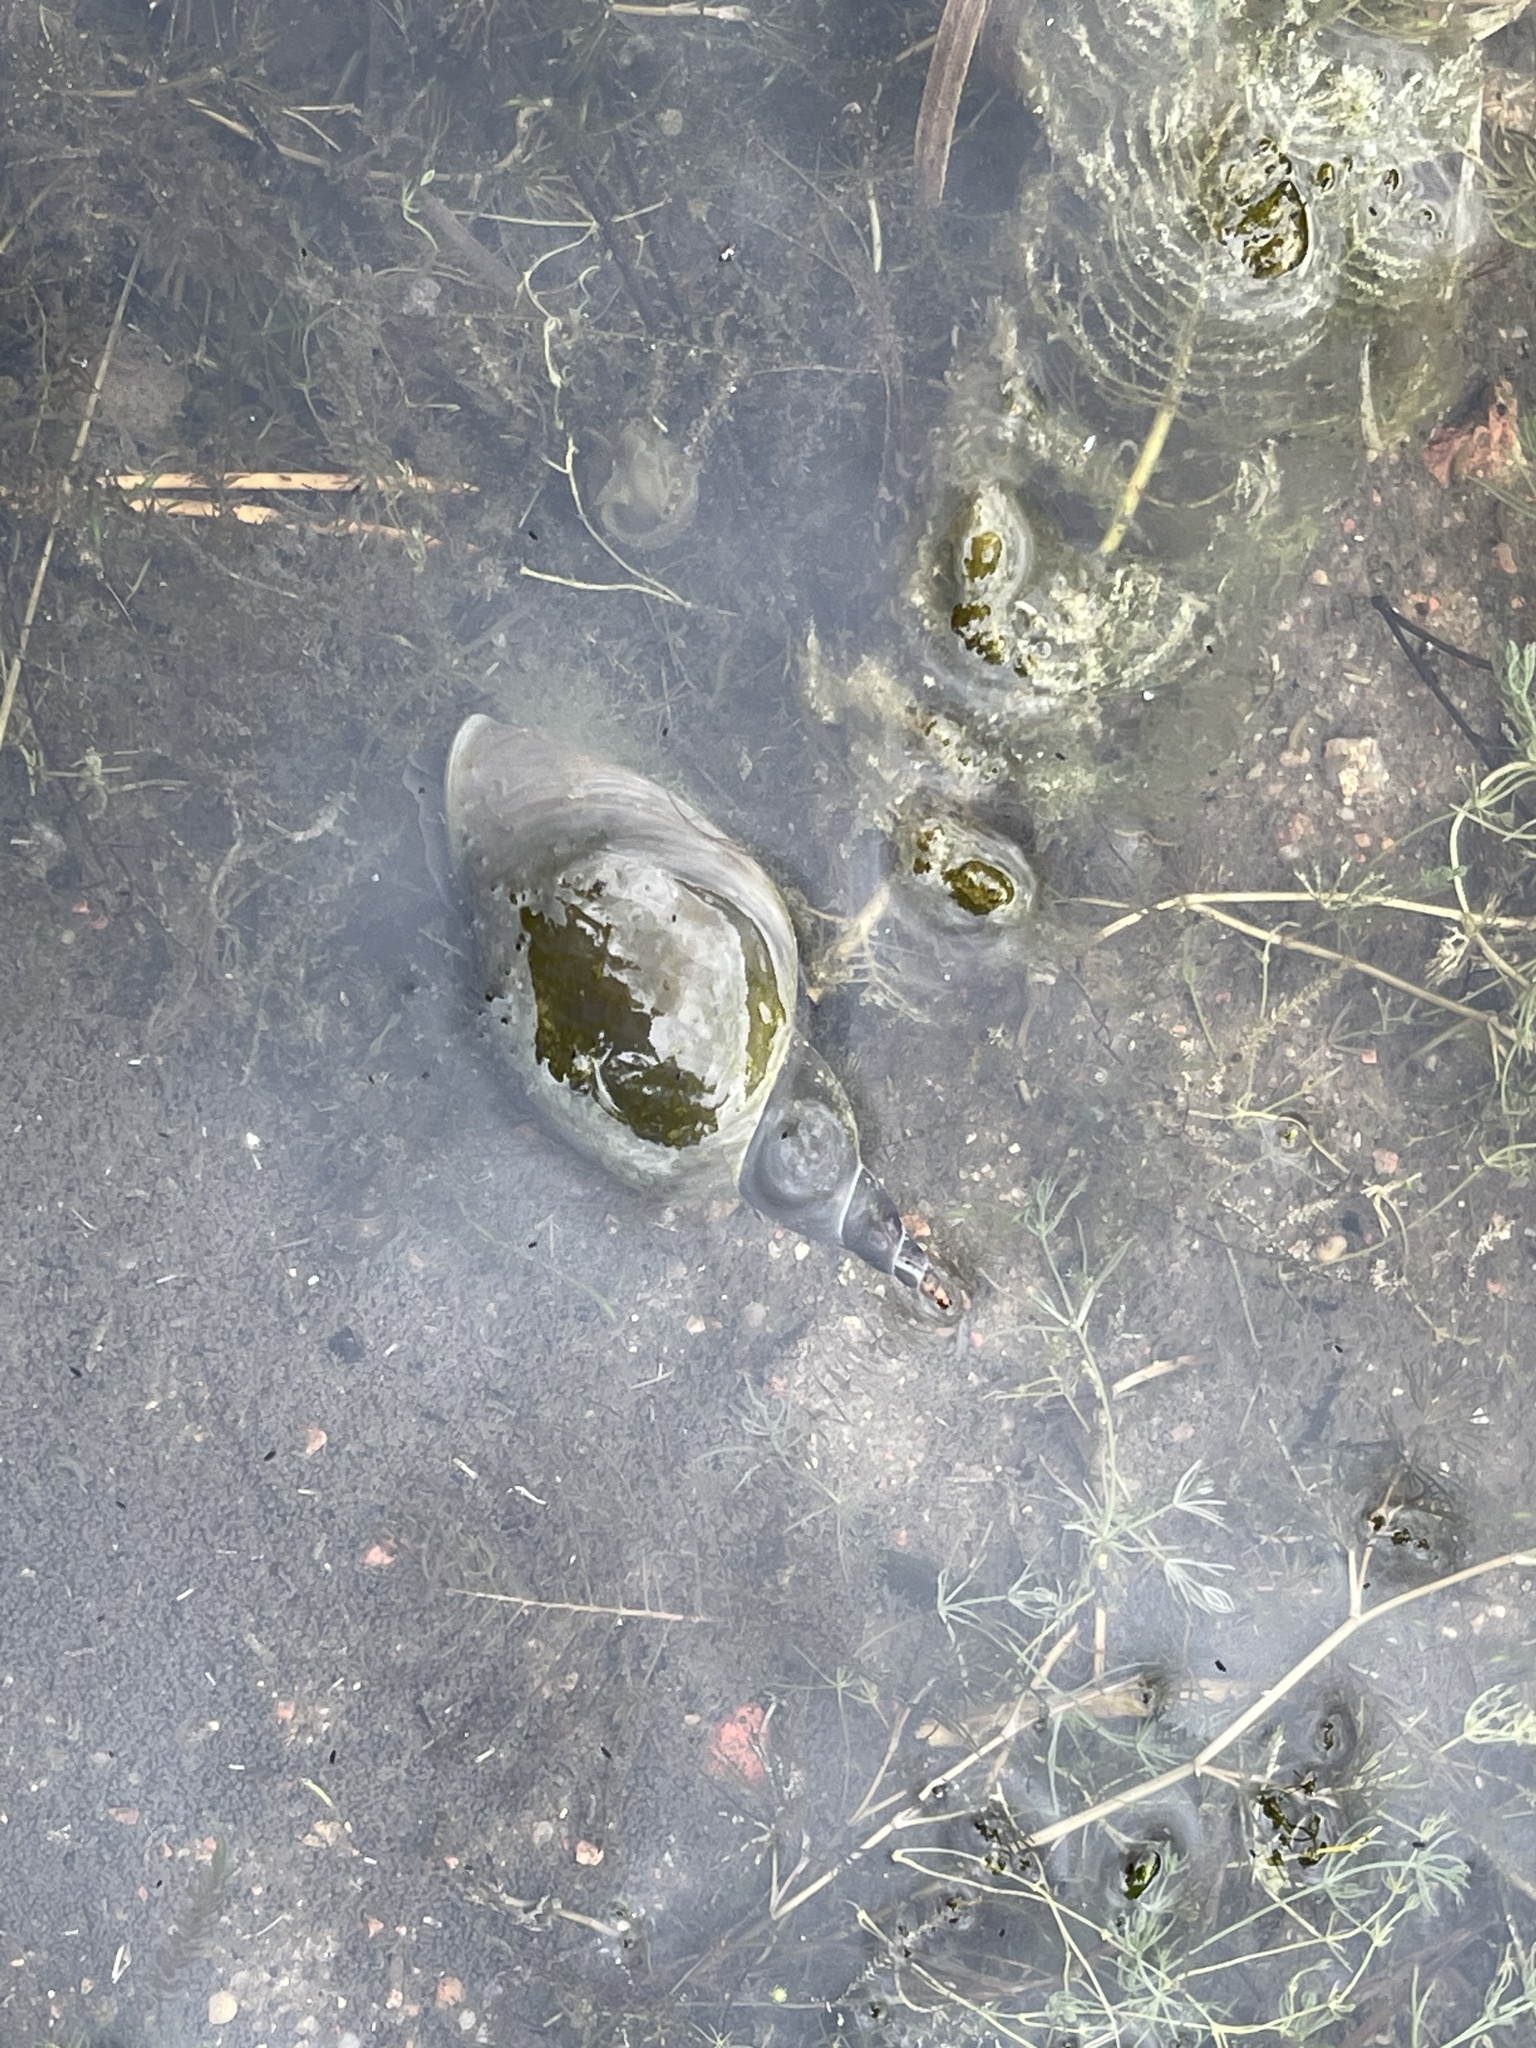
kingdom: Animalia
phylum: Mollusca
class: Gastropoda
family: Lymnaeidae
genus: Lymnaea
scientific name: Lymnaea stagnalis
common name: Great pond snail
